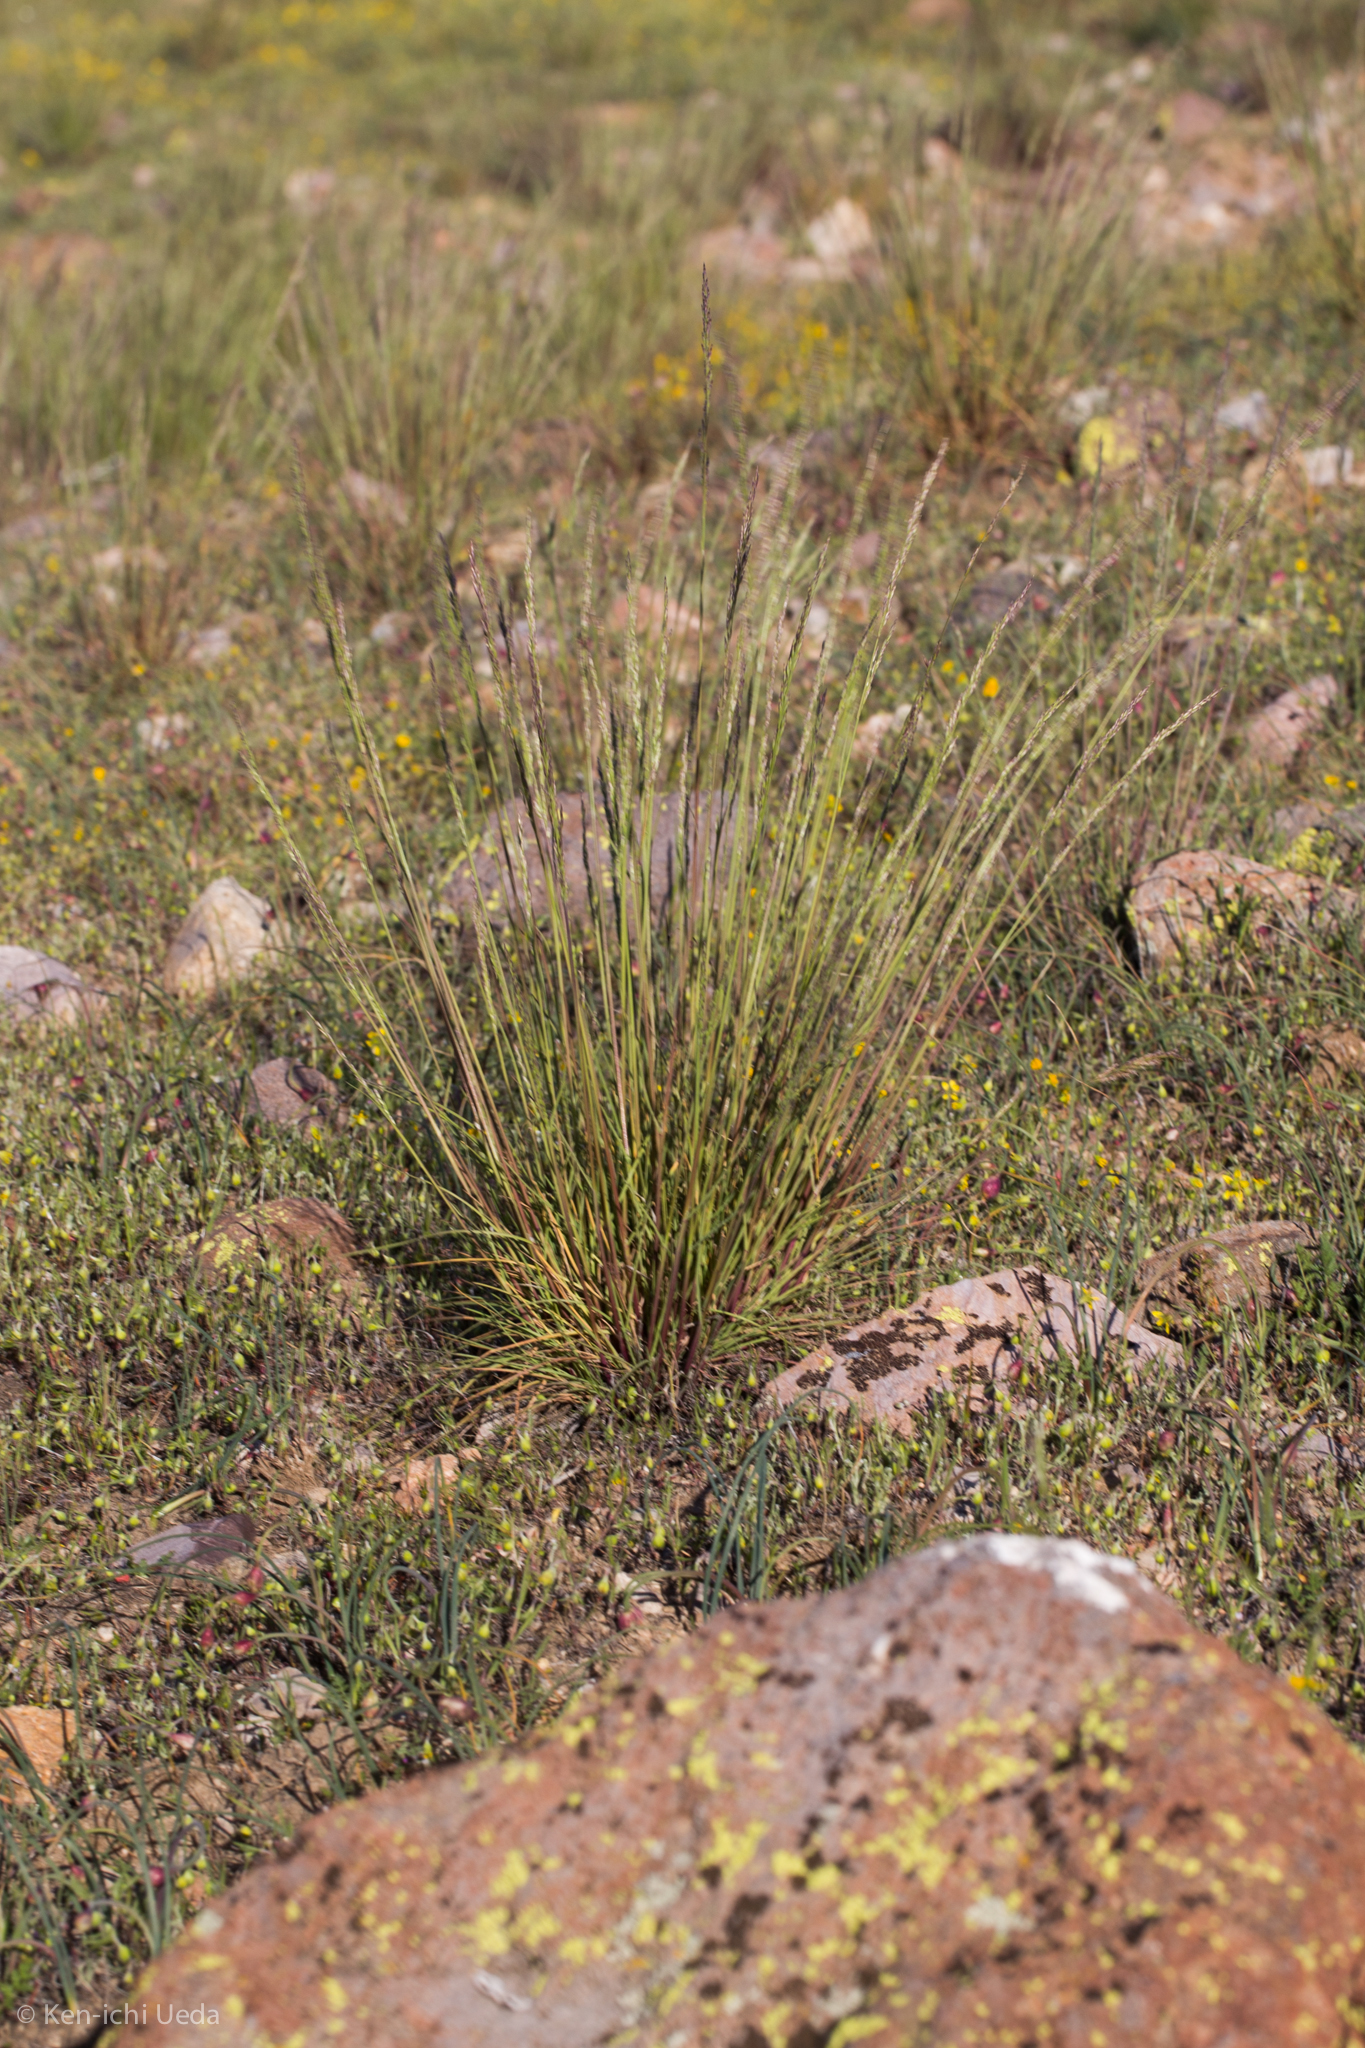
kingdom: Plantae
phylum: Tracheophyta
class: Liliopsida
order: Poales
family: Poaceae
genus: Poa
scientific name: Poa secunda
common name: Sandberg bluegrass
